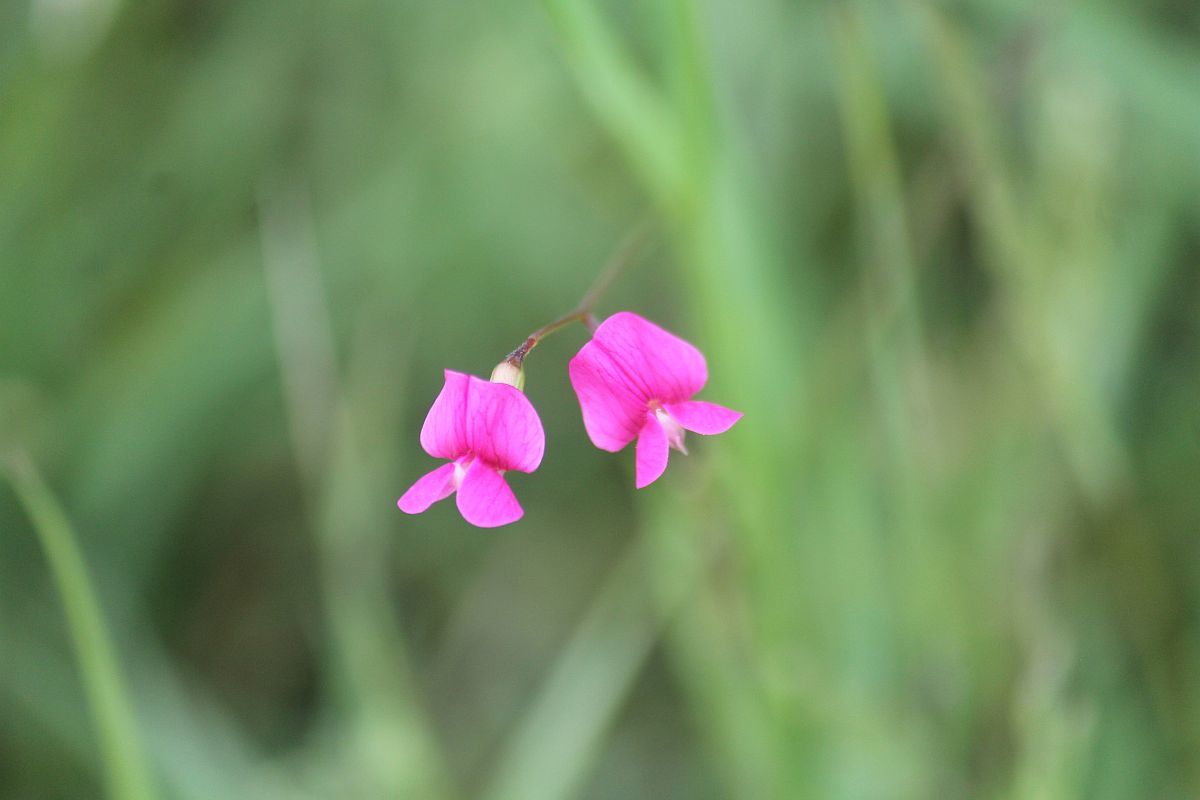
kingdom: Plantae
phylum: Tracheophyta
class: Magnoliopsida
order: Fabales
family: Fabaceae
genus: Lathyrus
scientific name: Lathyrus nissolia
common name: Grass vetchling
